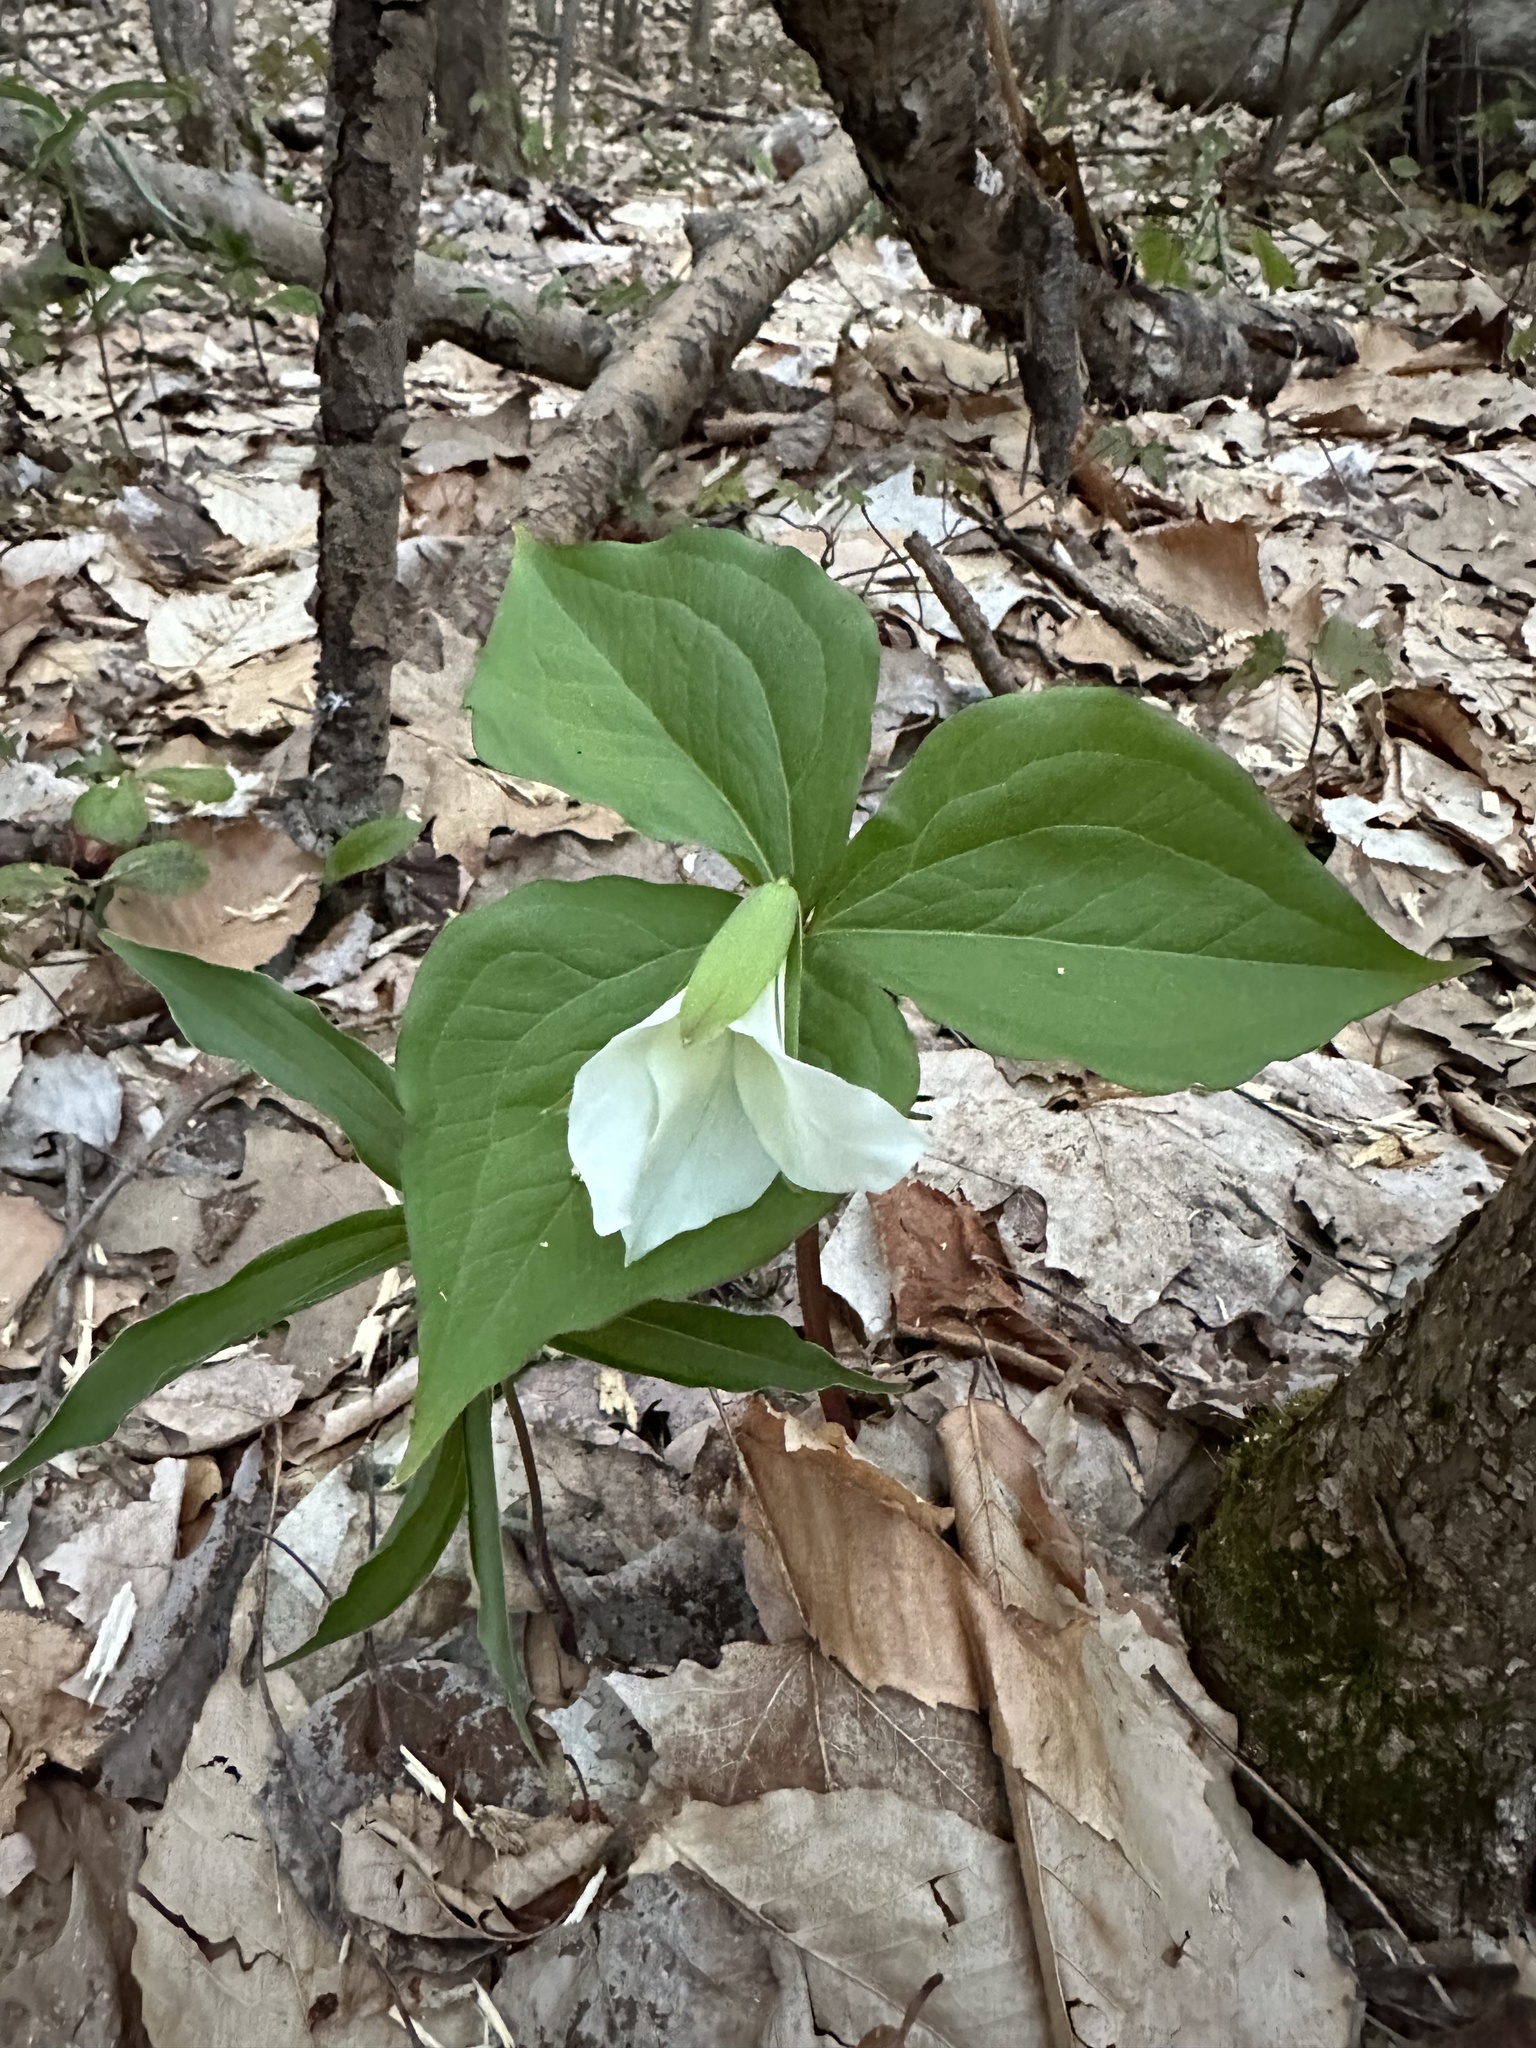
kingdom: Plantae
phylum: Tracheophyta
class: Liliopsida
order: Liliales
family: Melanthiaceae
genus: Trillium
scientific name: Trillium grandiflorum
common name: Great white trillium
